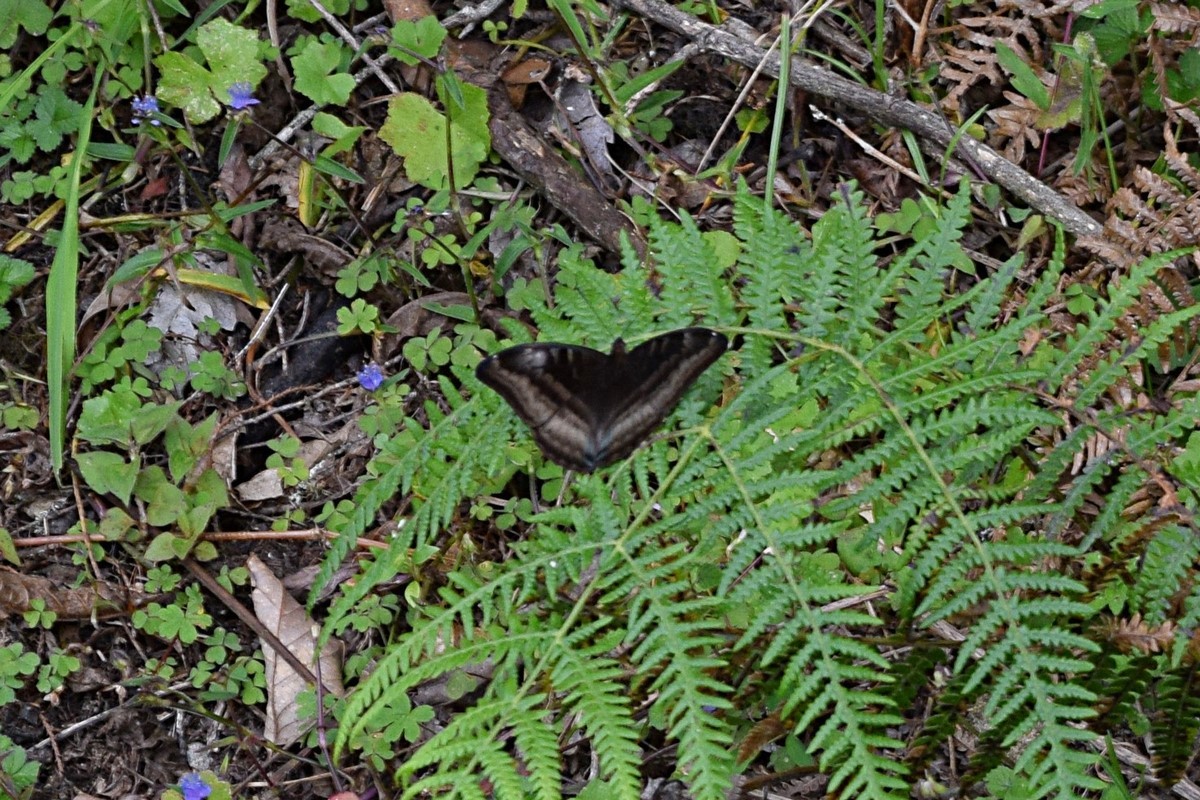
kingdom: Animalia
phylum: Arthropoda
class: Insecta
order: Lepidoptera
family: Nymphalidae
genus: Limenitis
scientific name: Limenitis Auzakia danava
